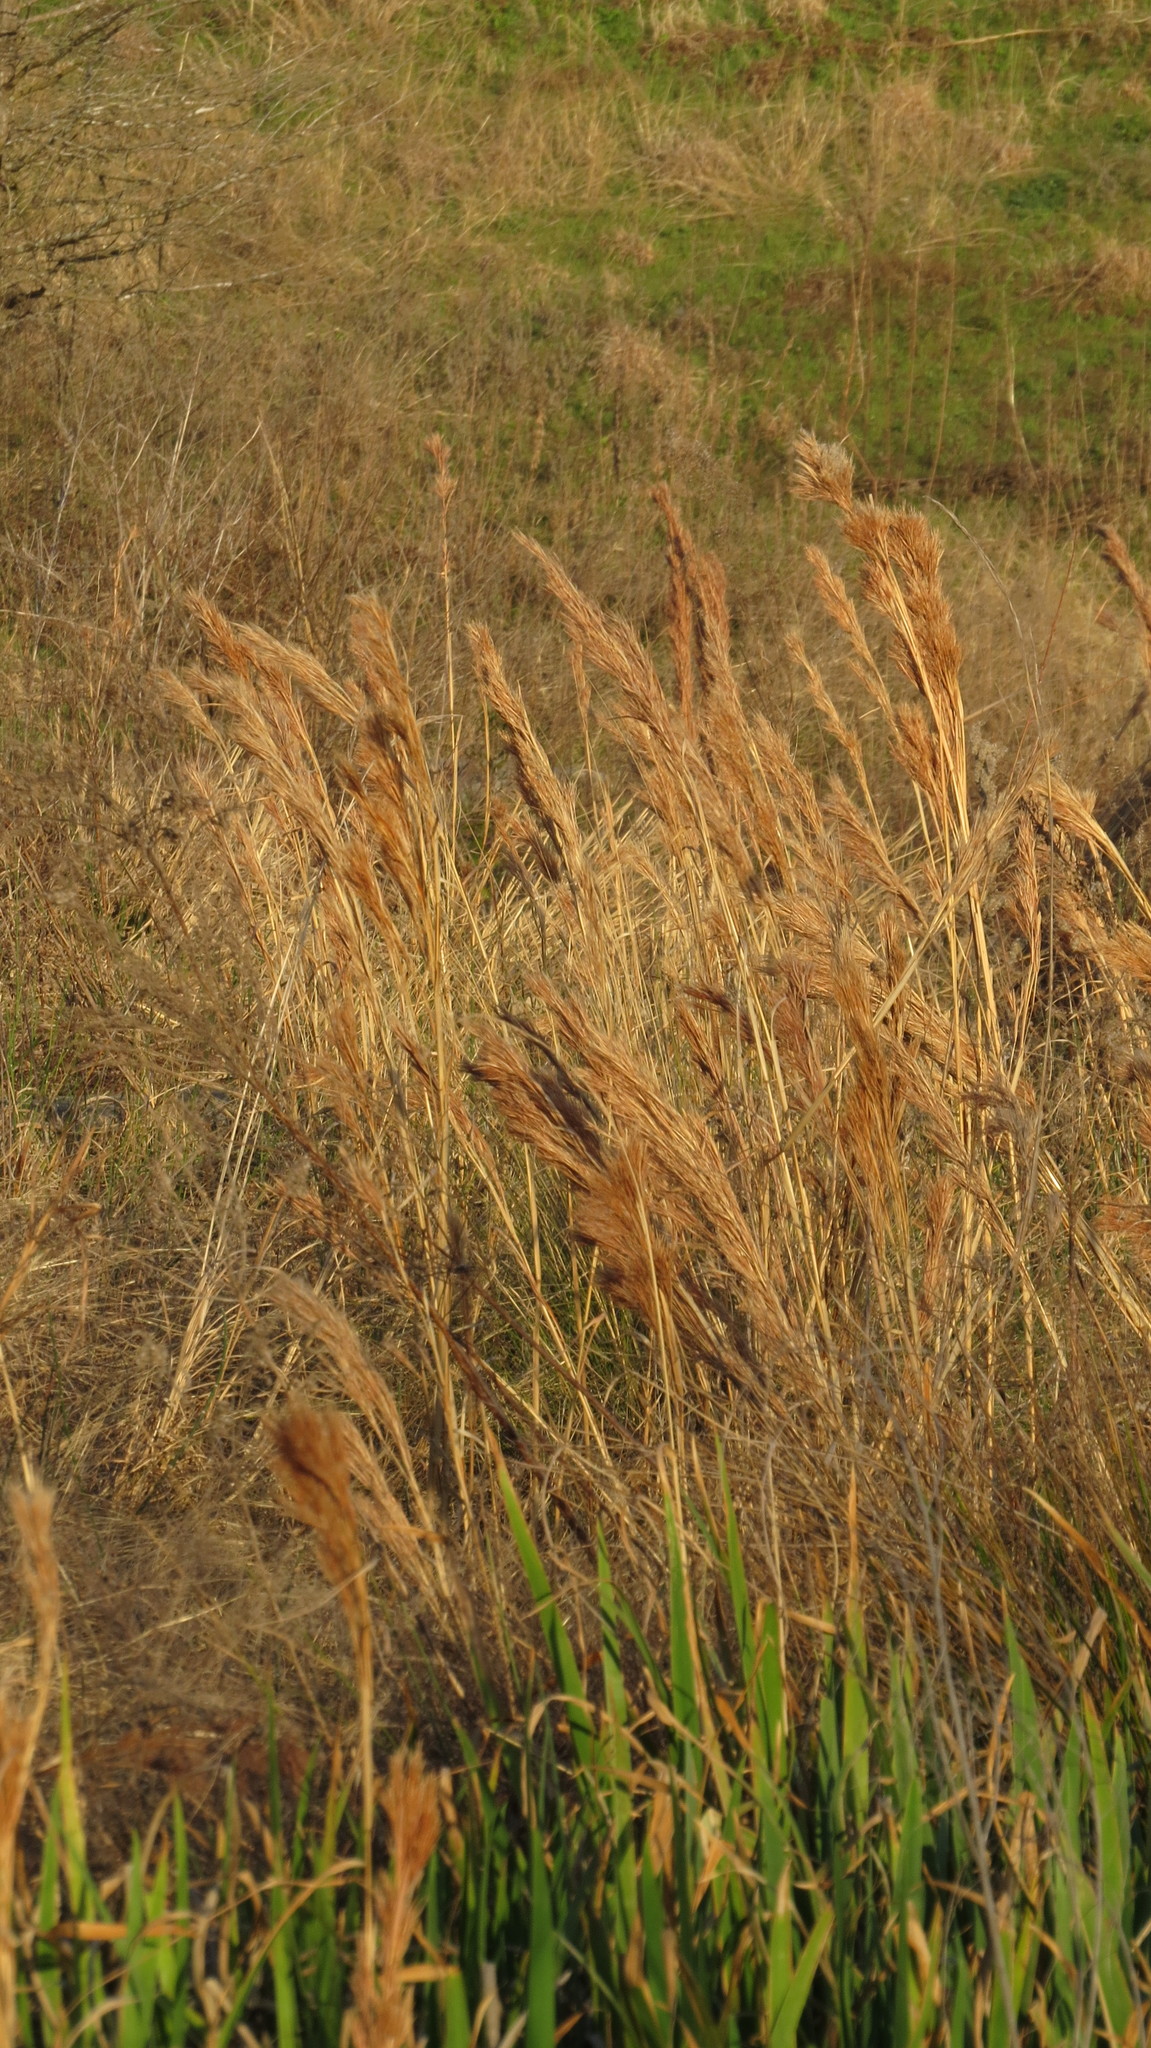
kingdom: Plantae
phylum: Tracheophyta
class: Liliopsida
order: Poales
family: Poaceae
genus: Andropogon
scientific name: Andropogon tenuispatheus
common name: Bushy bluestem
